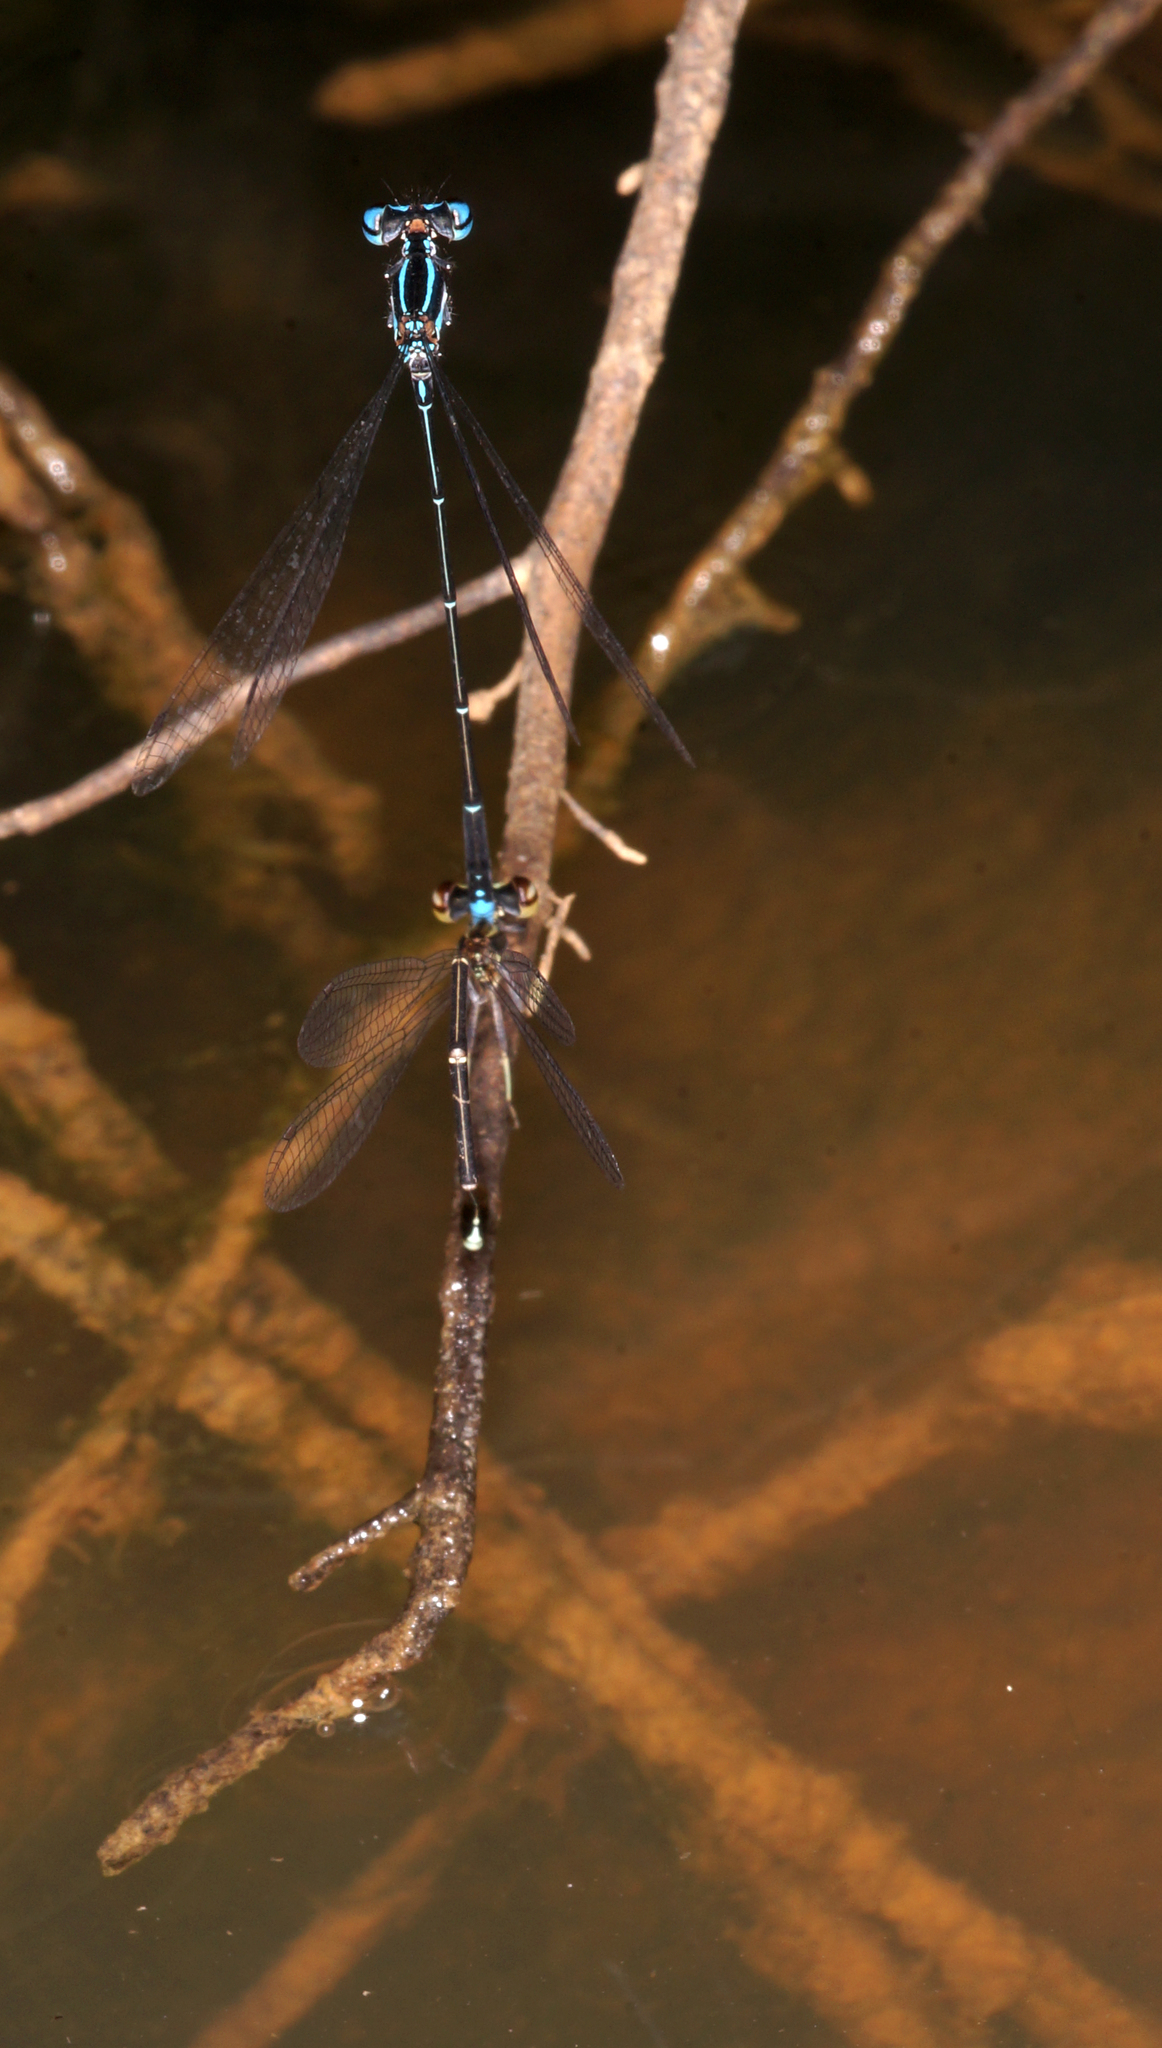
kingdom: Animalia
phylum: Arthropoda
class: Insecta
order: Odonata
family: Platycnemididae
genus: Prodasineura
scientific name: Prodasineura coerulescens
